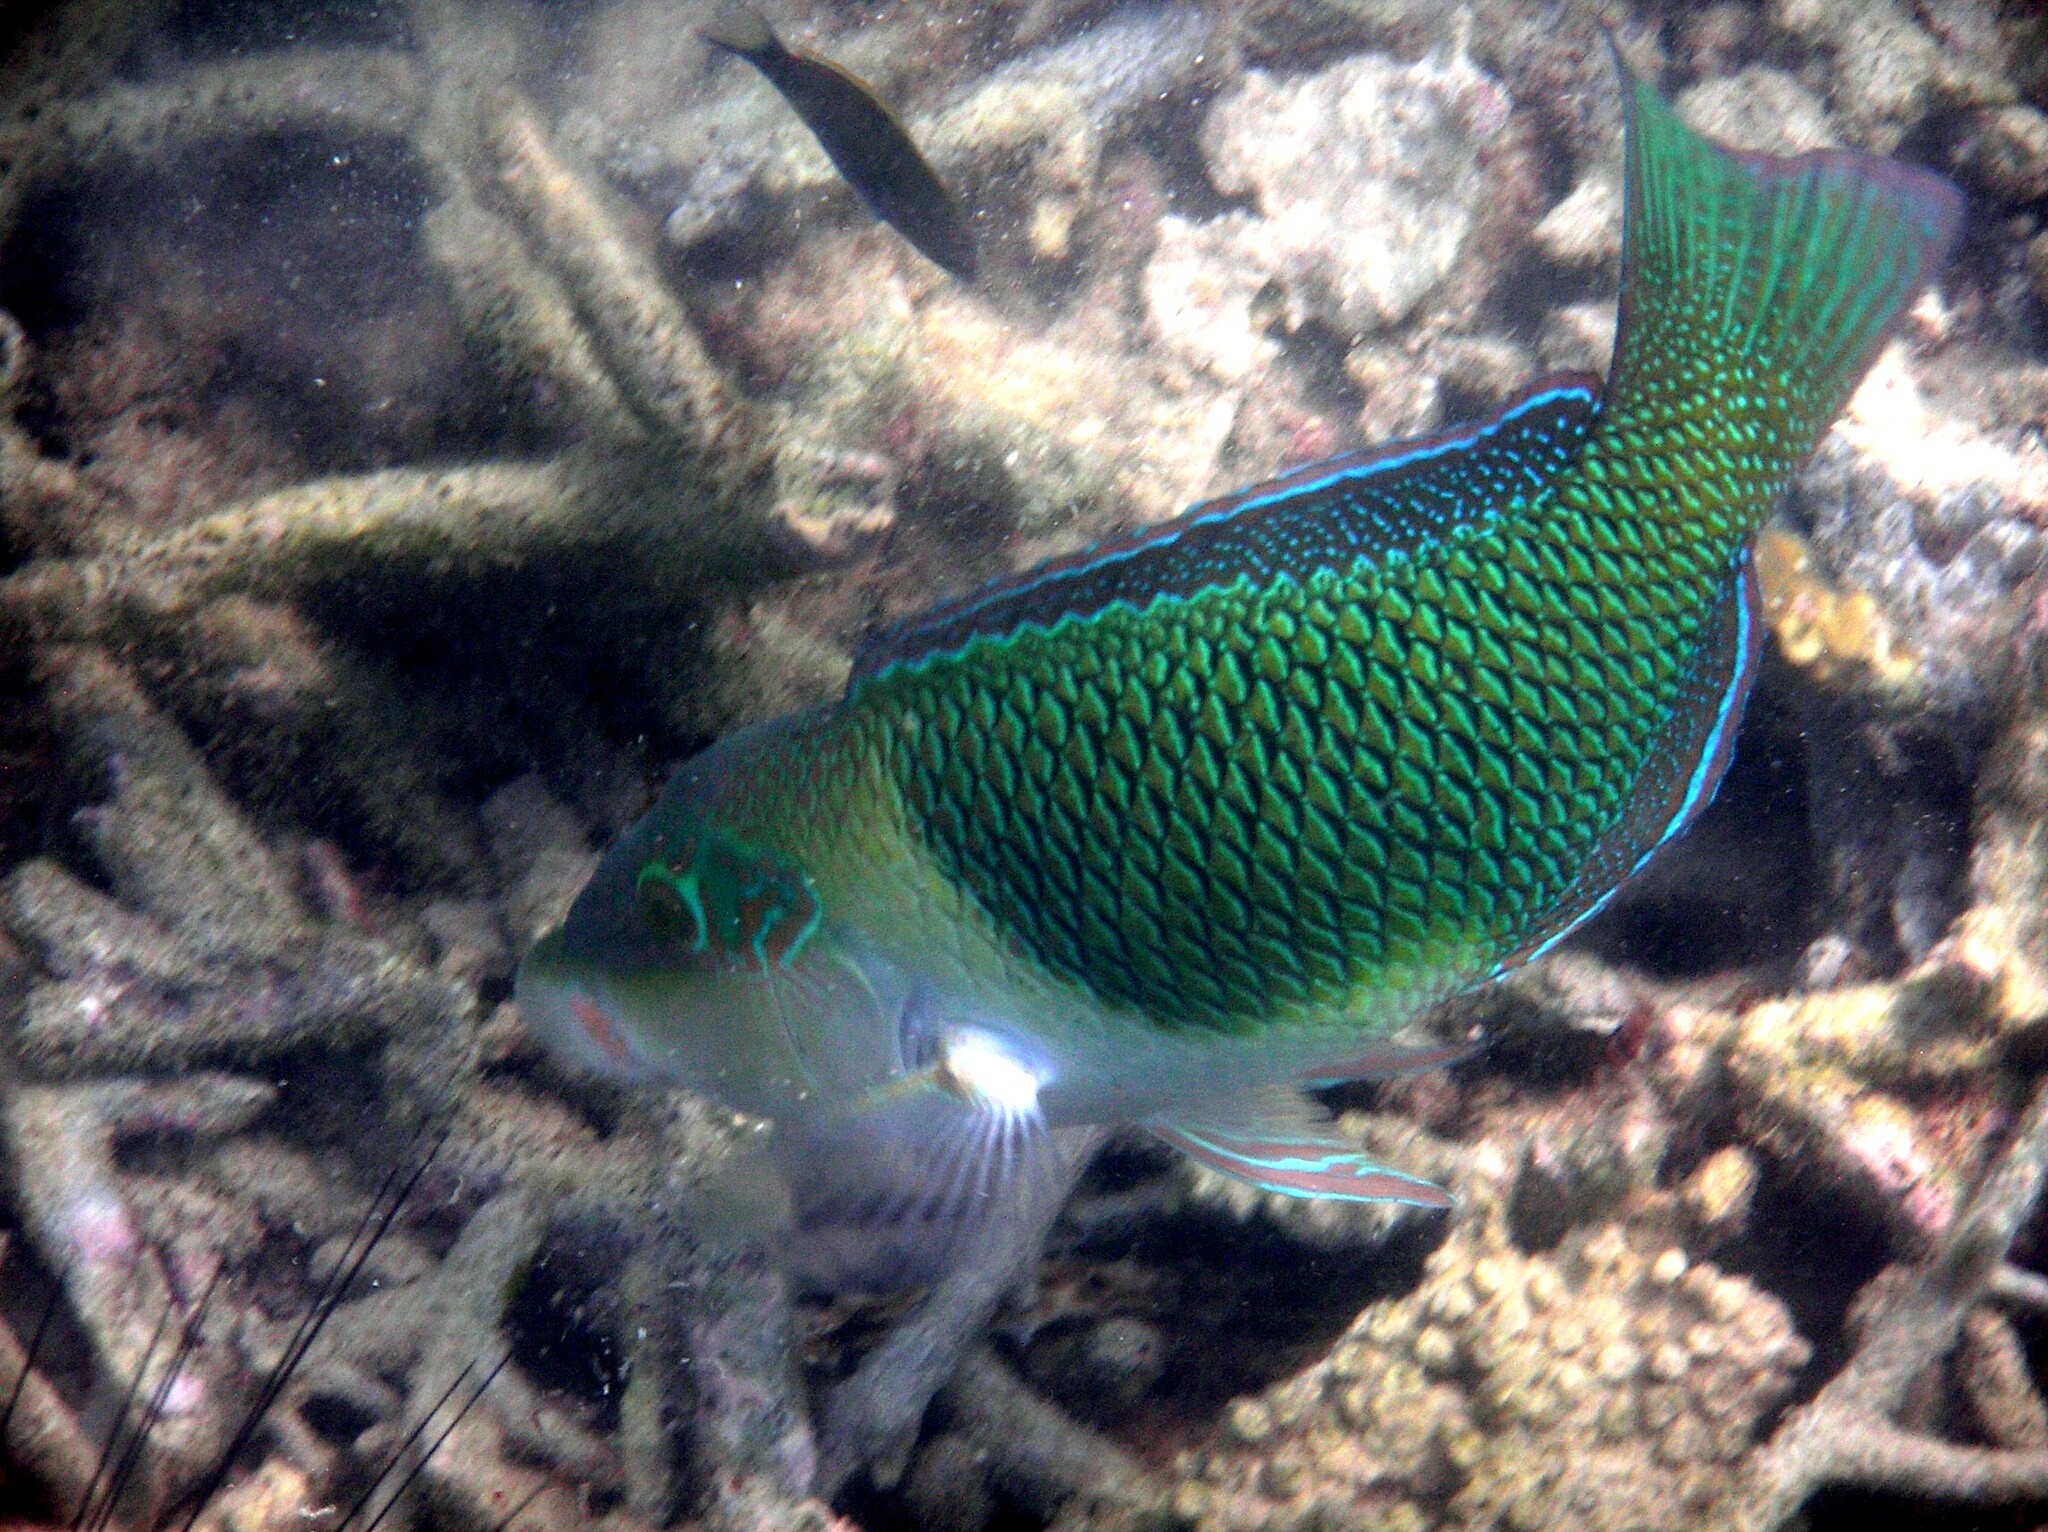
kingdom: Animalia
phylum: Chordata
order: Perciformes
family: Labridae
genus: Hemigymnus
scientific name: Hemigymnus melapterus
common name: Blackeye thicklip
